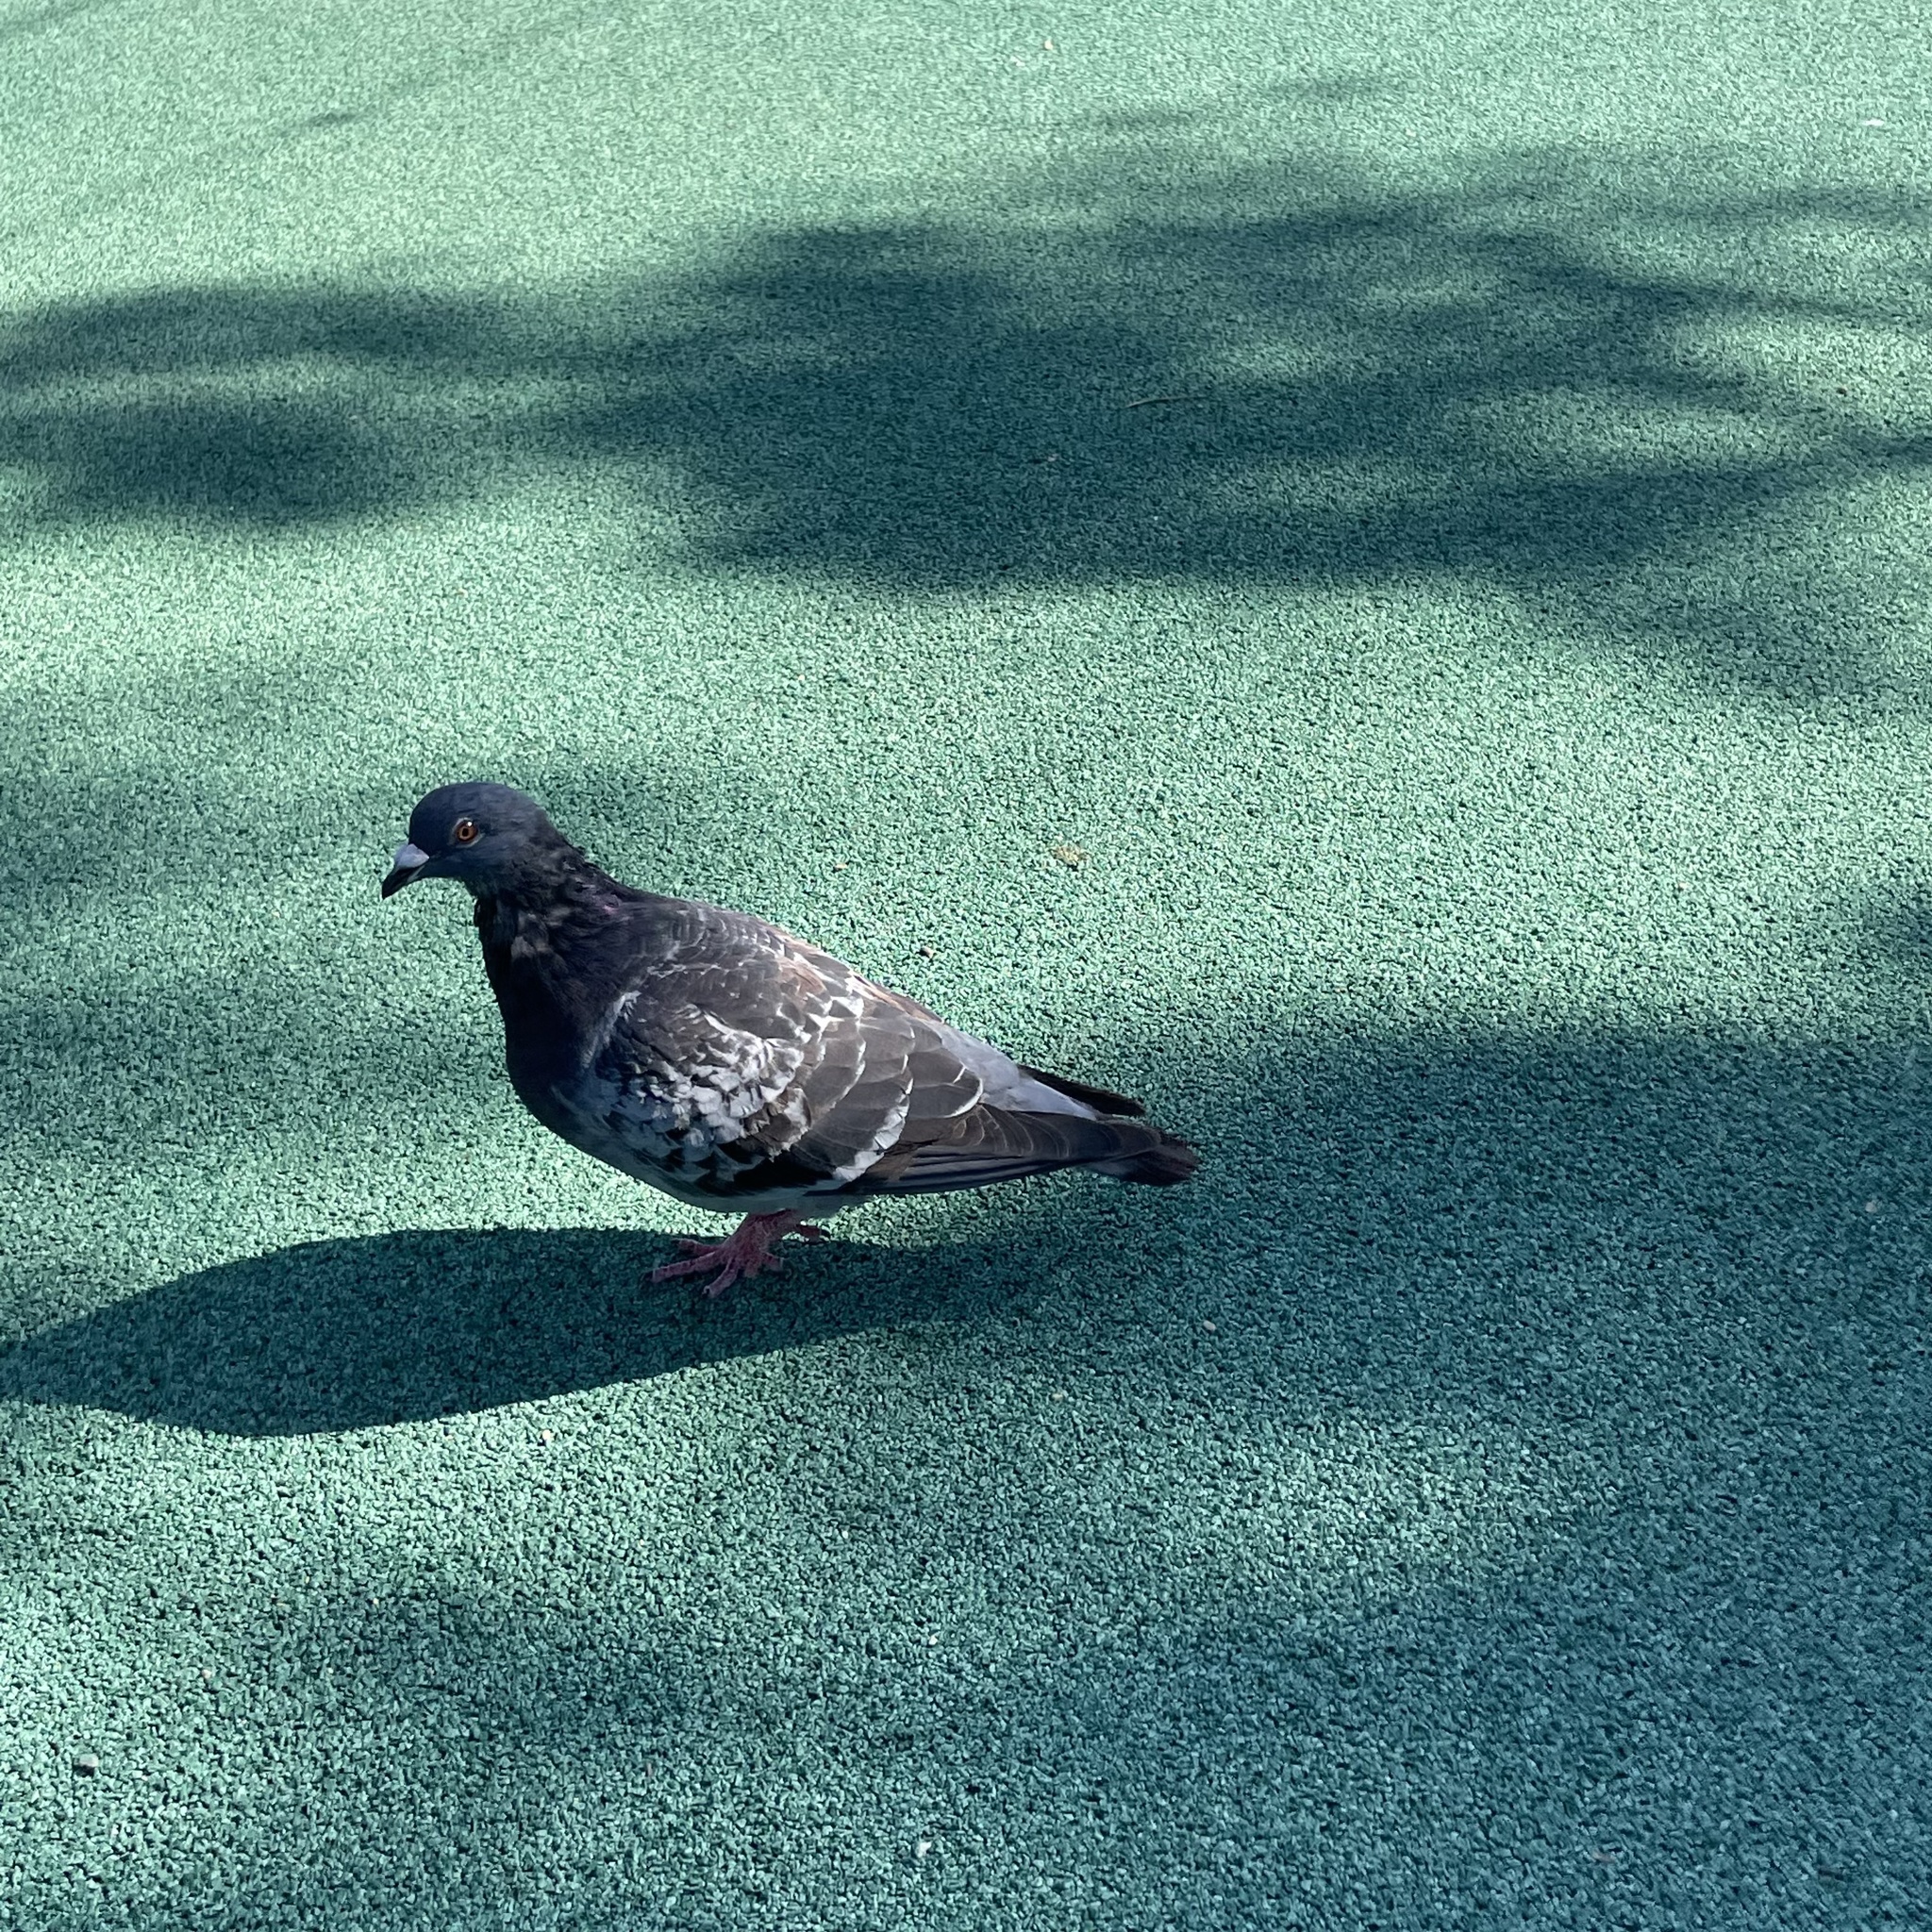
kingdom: Animalia
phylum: Chordata
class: Aves
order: Columbiformes
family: Columbidae
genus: Columba
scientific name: Columba livia
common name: Rock pigeon
